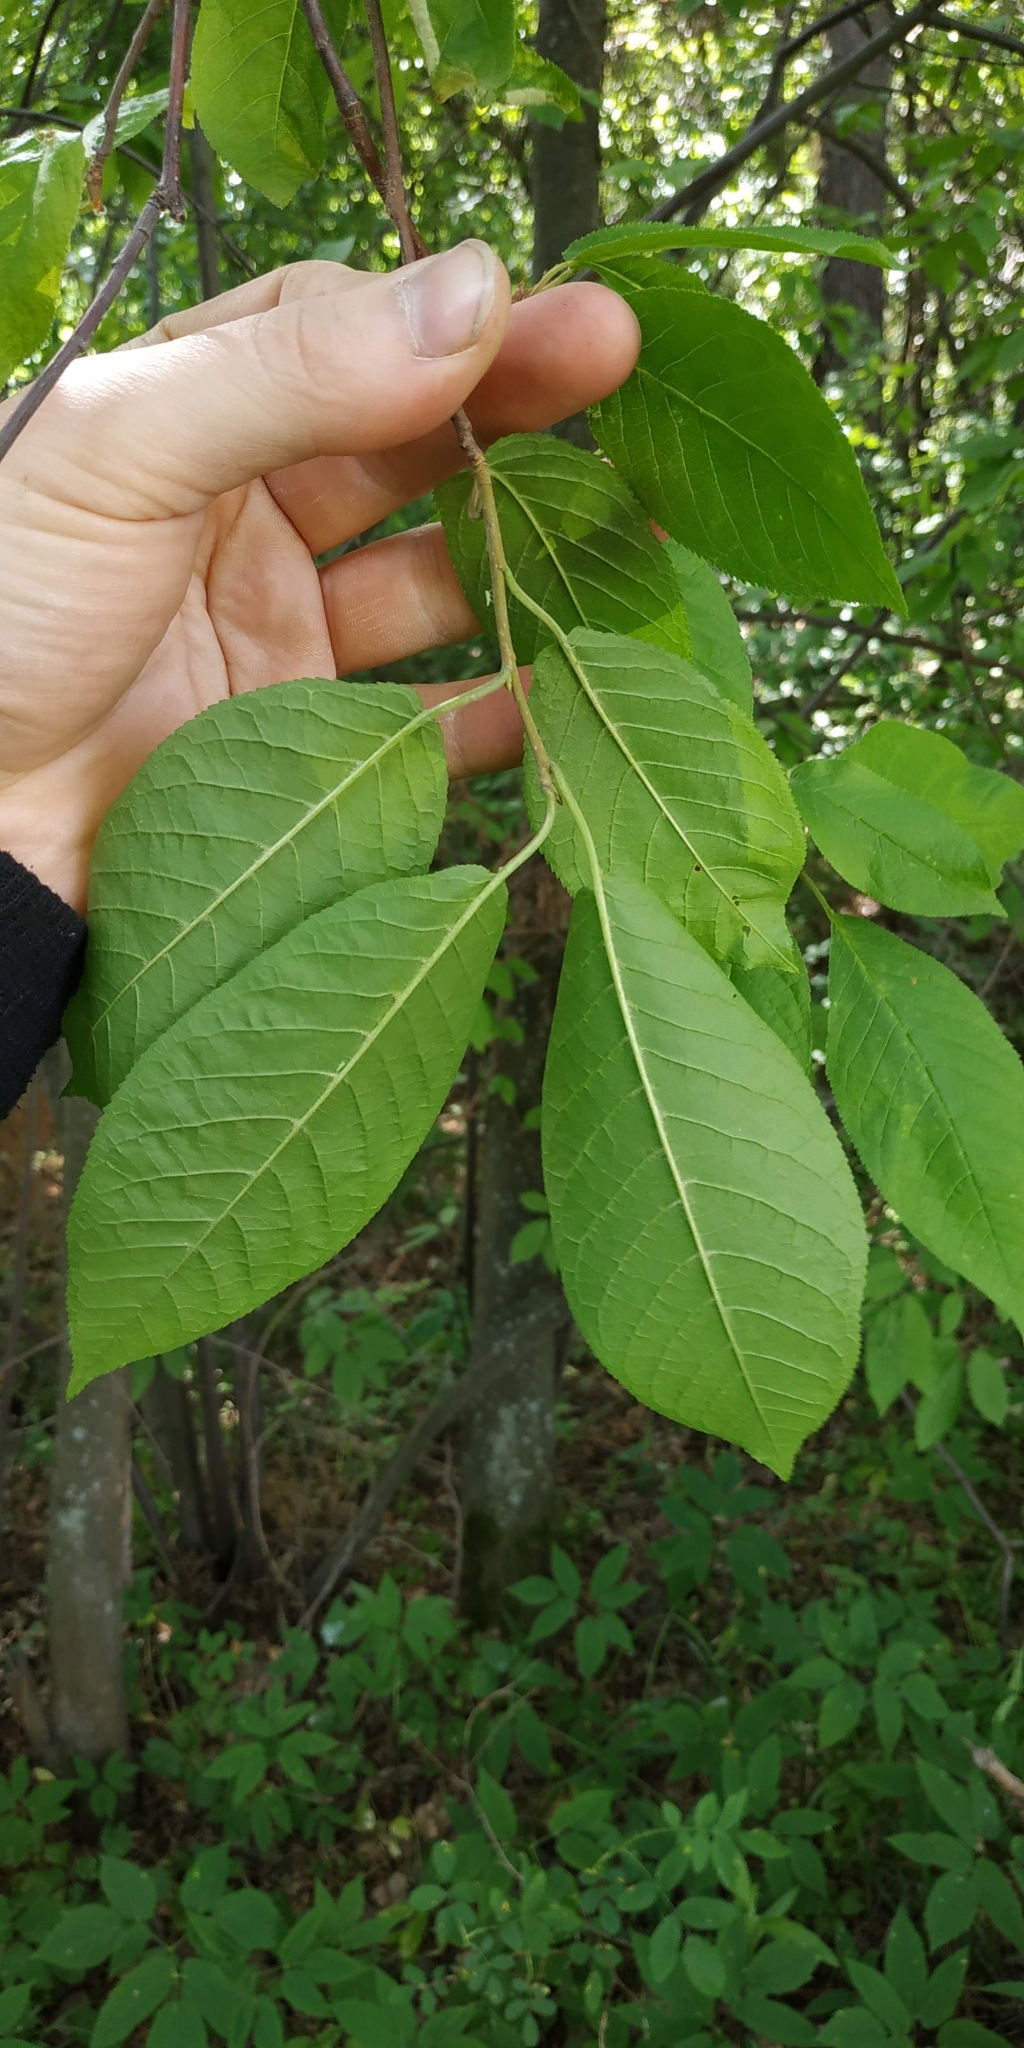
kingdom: Plantae
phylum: Tracheophyta
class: Magnoliopsida
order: Rosales
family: Rosaceae
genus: Prunus
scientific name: Prunus padus
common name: Bird cherry
